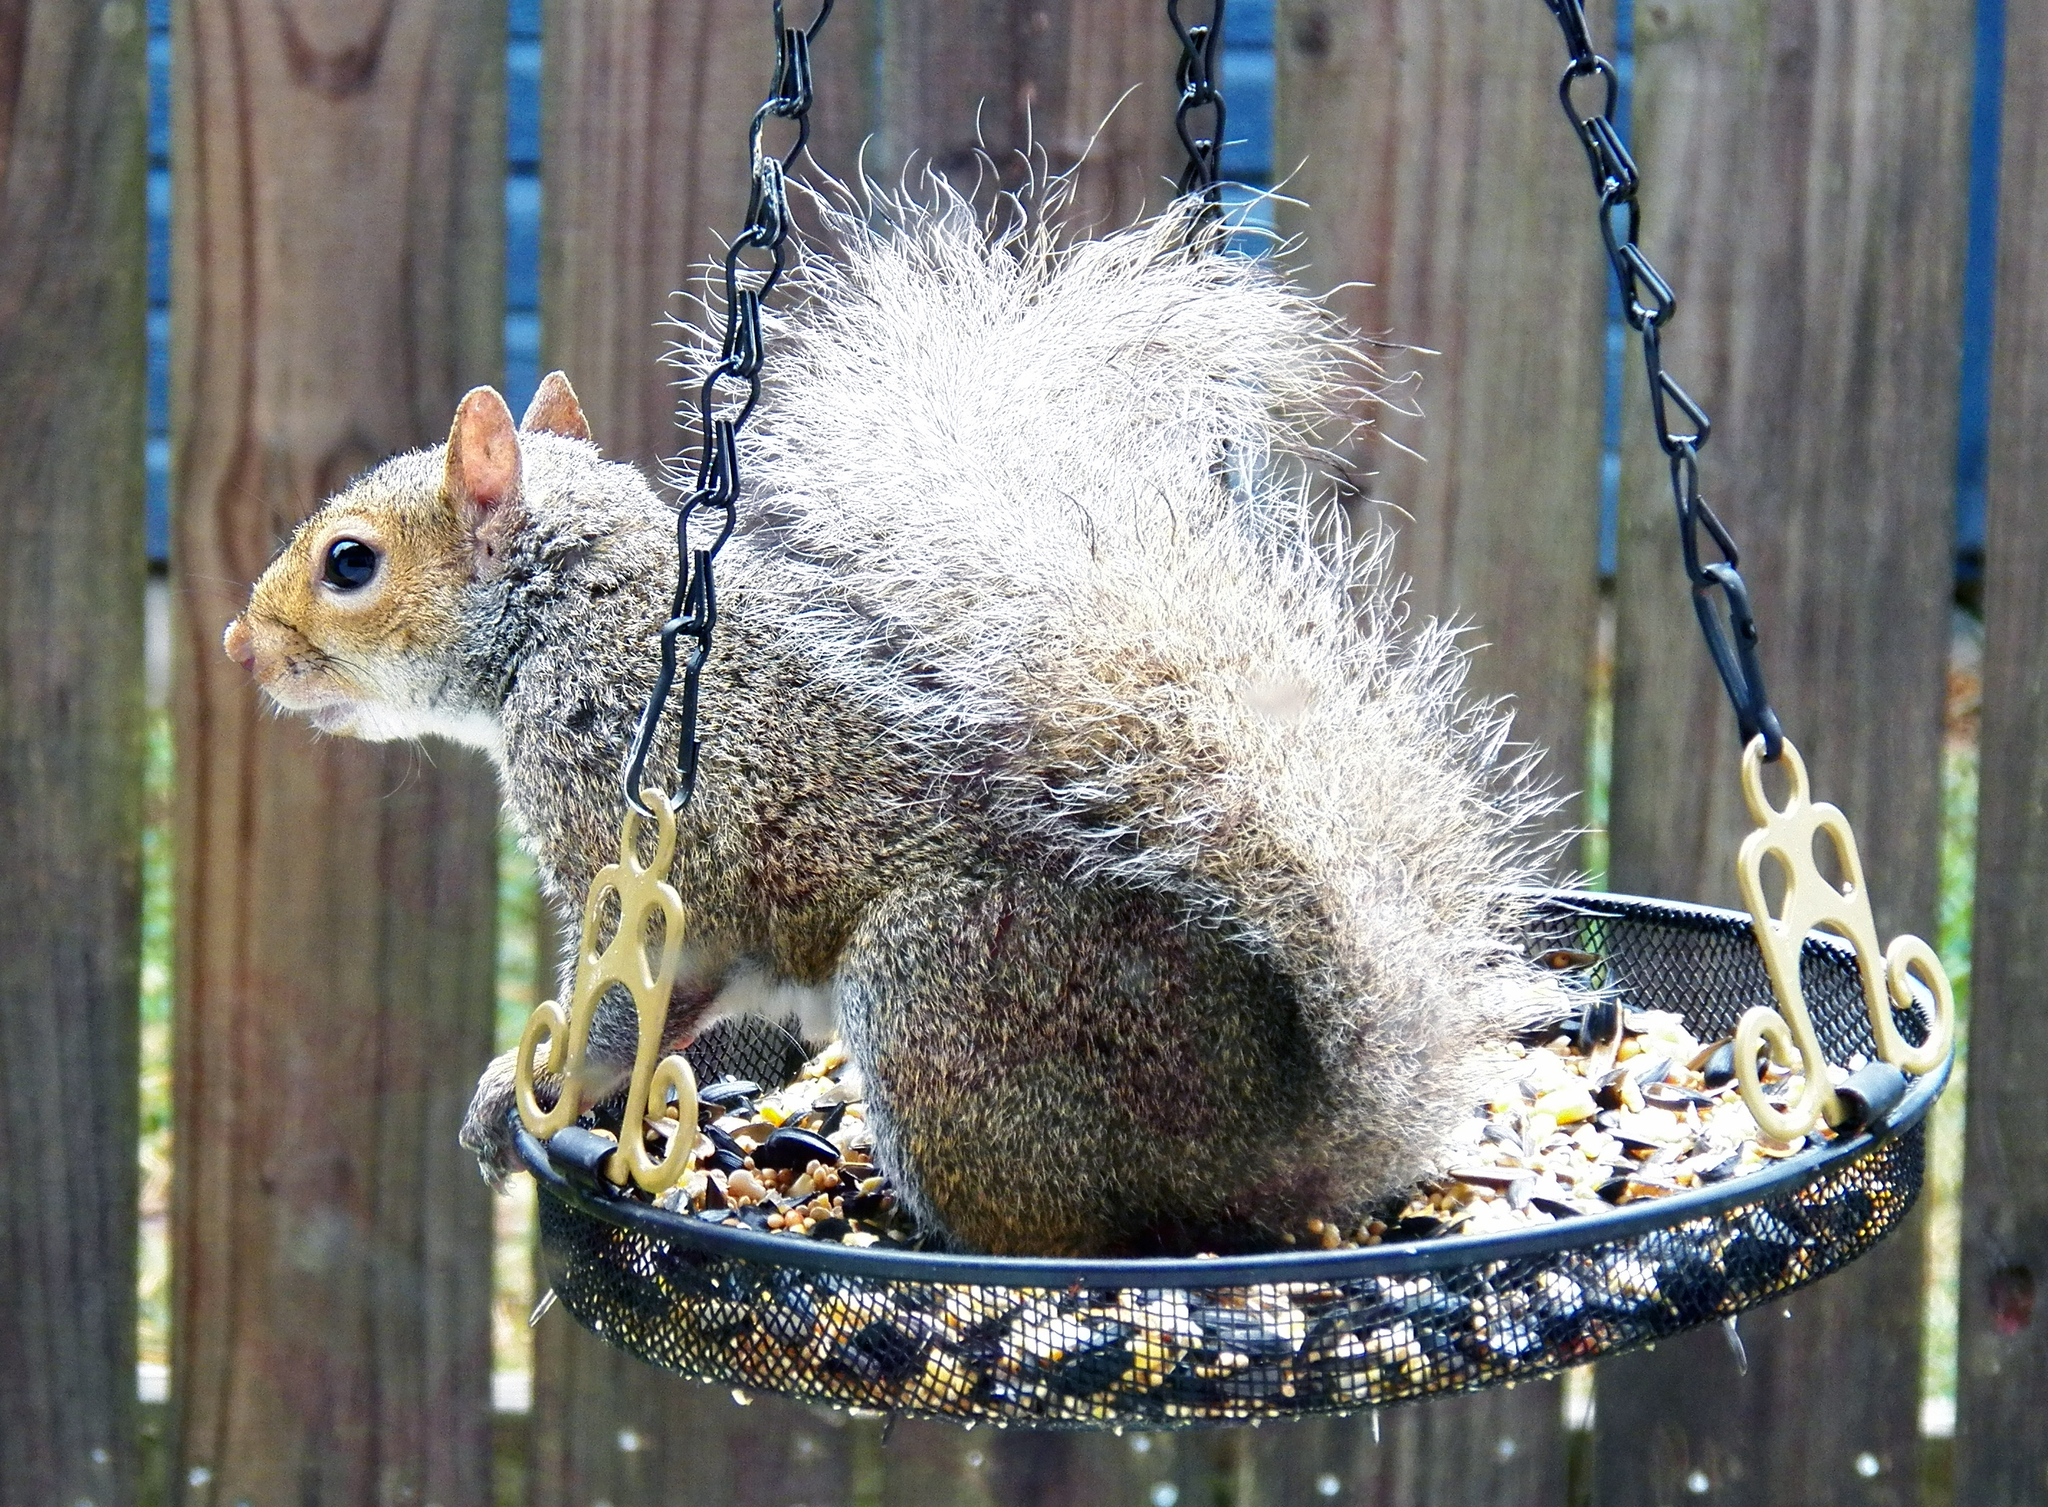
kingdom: Animalia
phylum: Chordata
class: Mammalia
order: Rodentia
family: Sciuridae
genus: Sciurus
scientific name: Sciurus carolinensis
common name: Eastern gray squirrel
